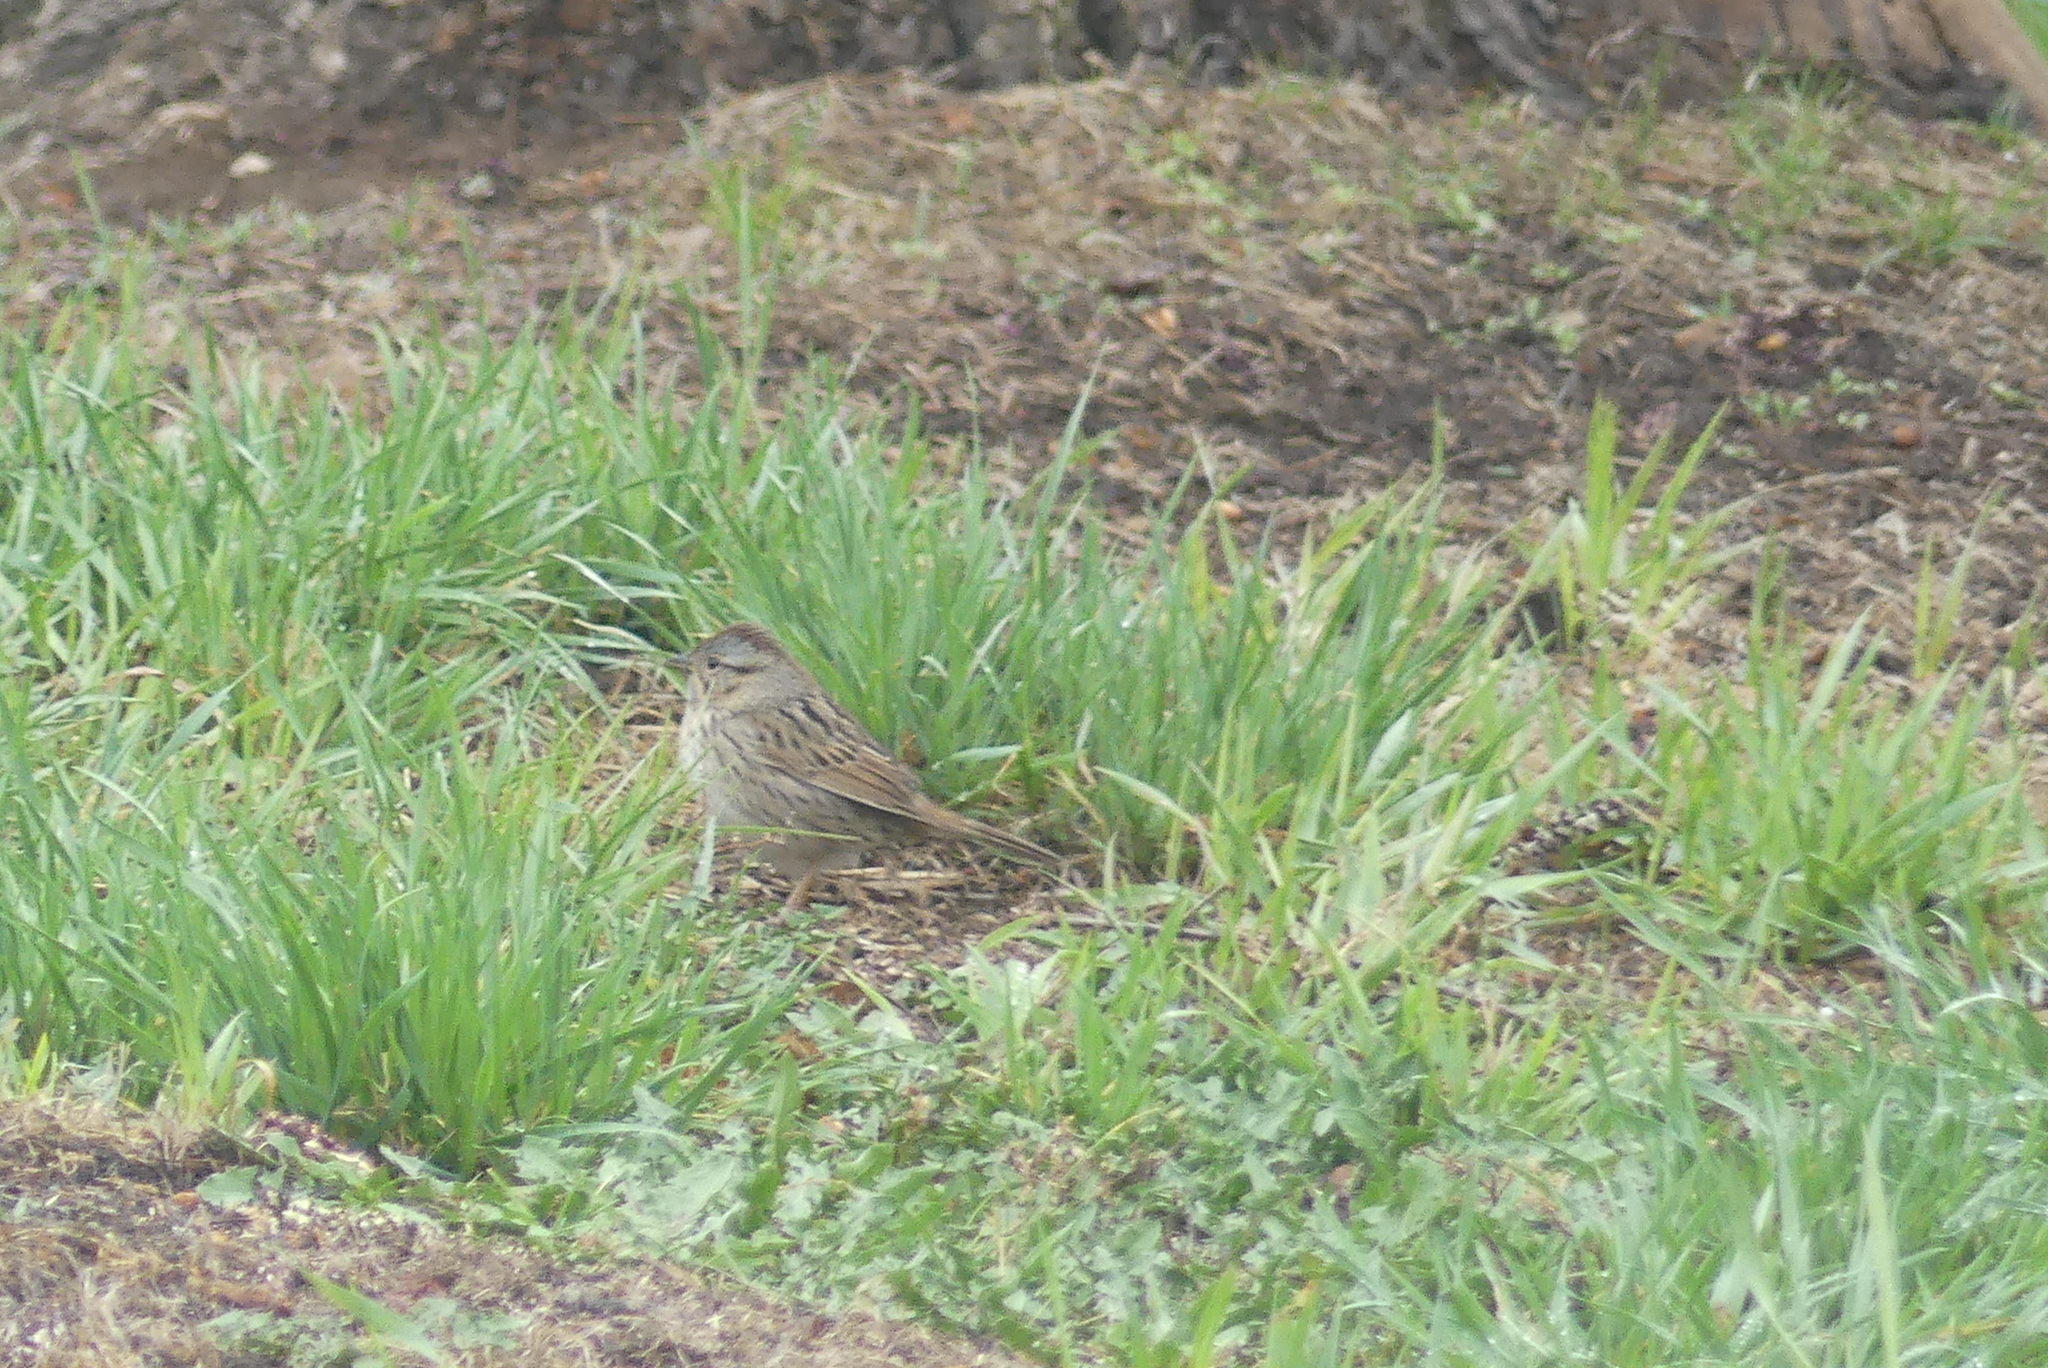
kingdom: Animalia
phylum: Chordata
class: Aves
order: Passeriformes
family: Passerellidae
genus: Melospiza
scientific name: Melospiza lincolnii
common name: Lincoln's sparrow
